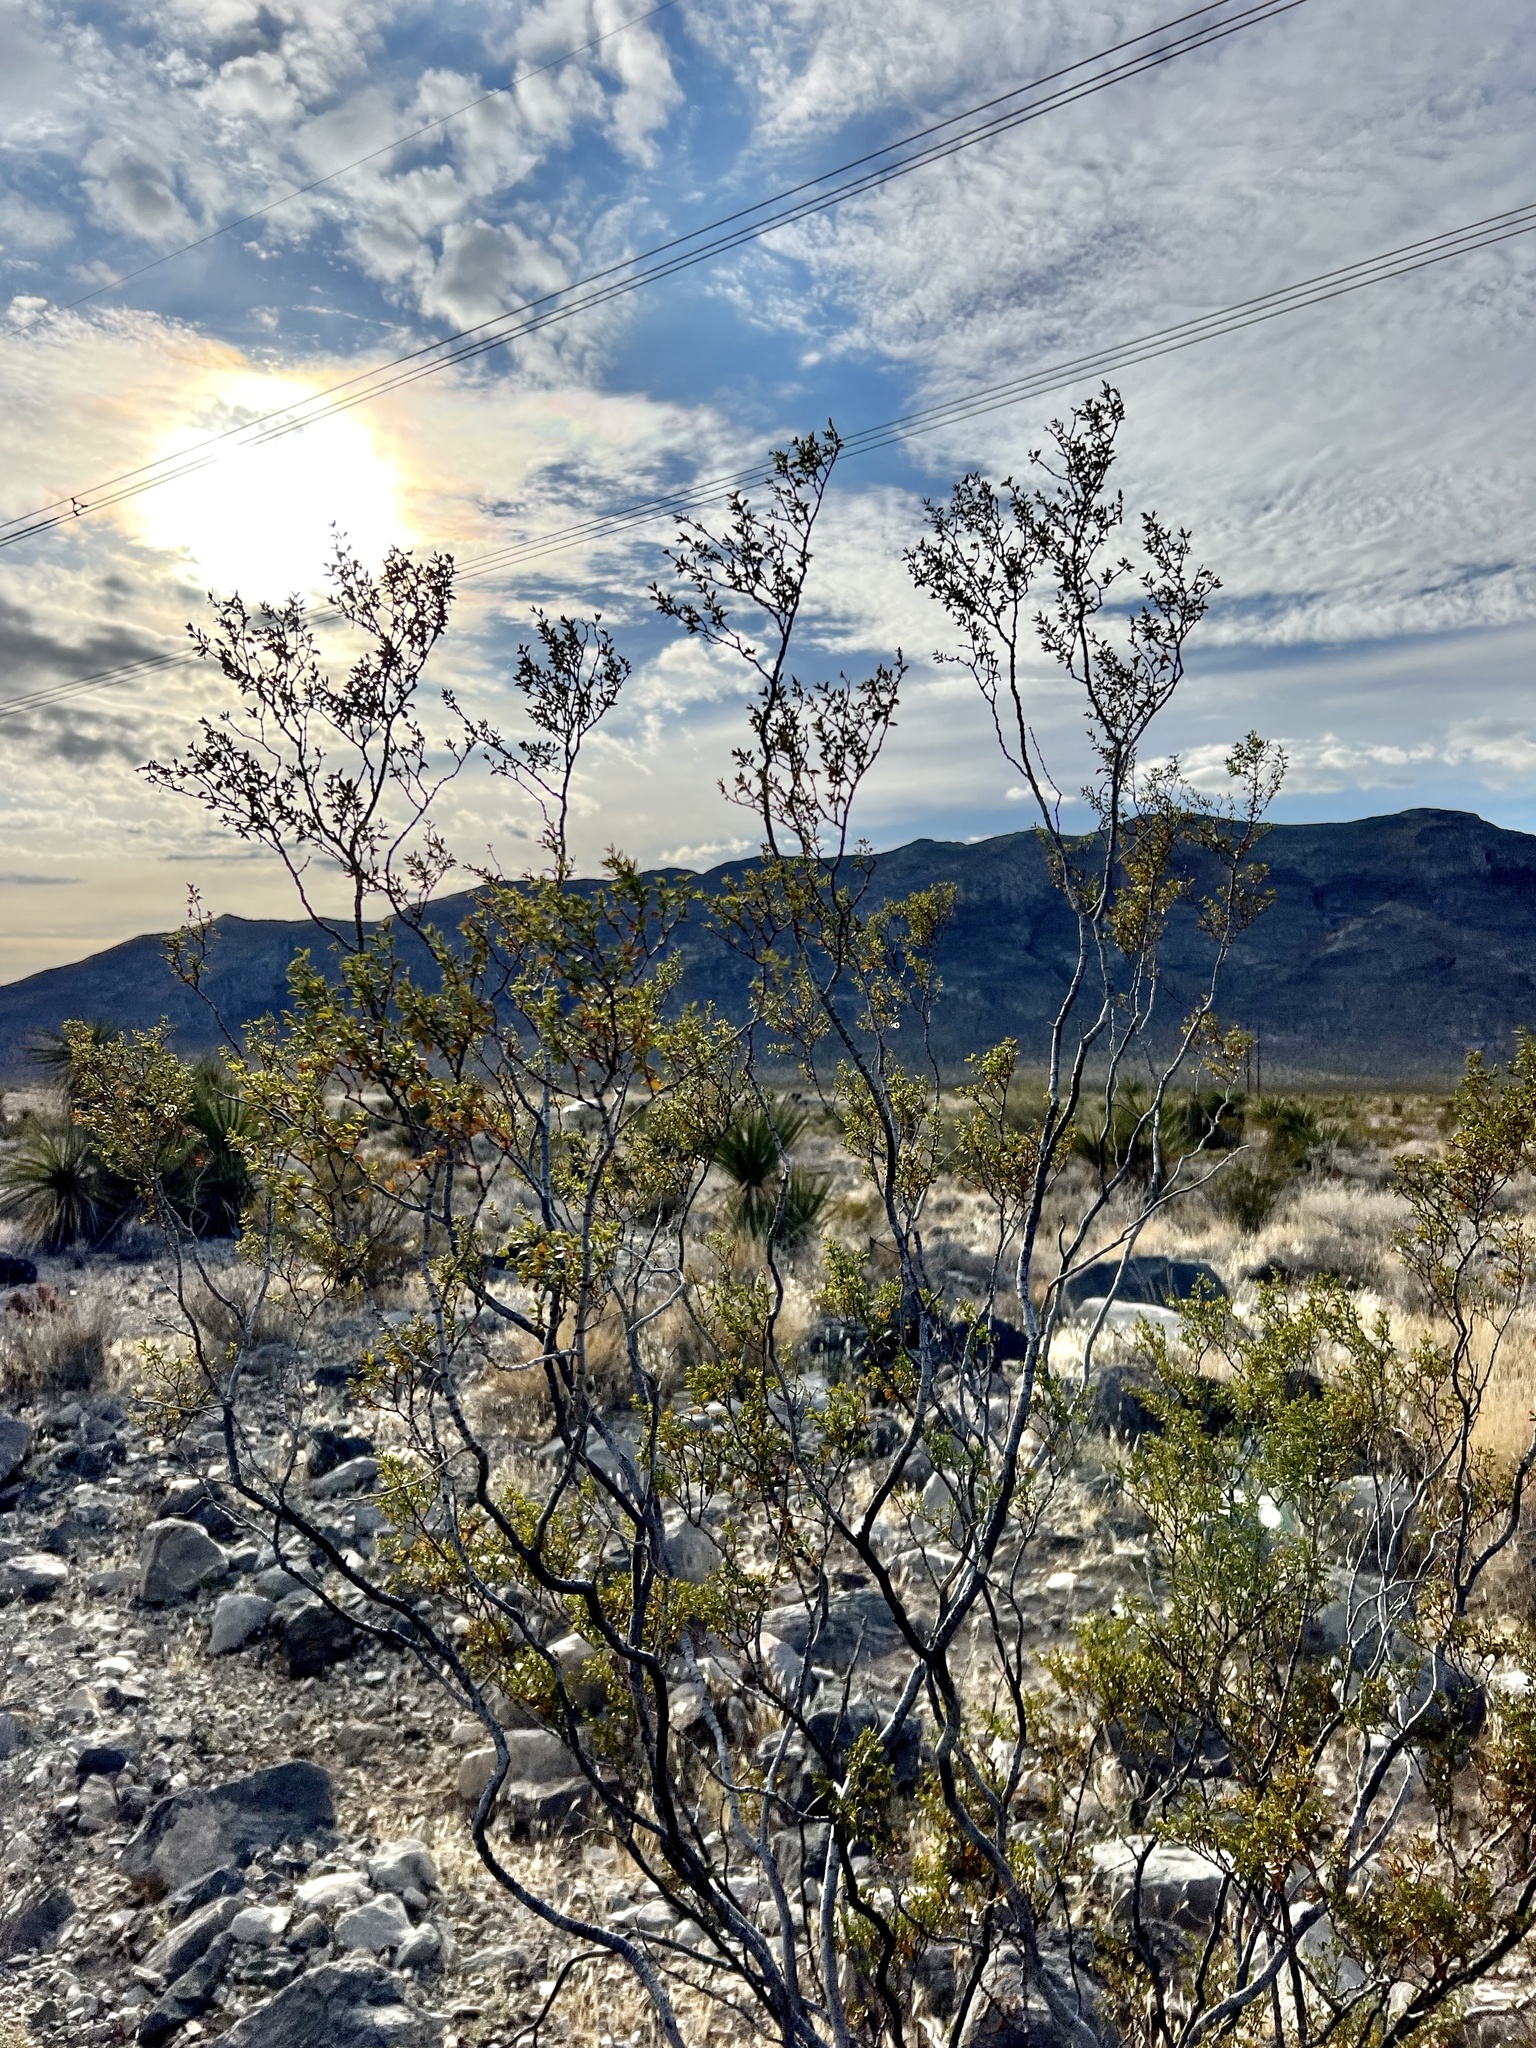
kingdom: Plantae
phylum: Tracheophyta
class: Magnoliopsida
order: Zygophyllales
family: Zygophyllaceae
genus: Larrea
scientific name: Larrea tridentata
